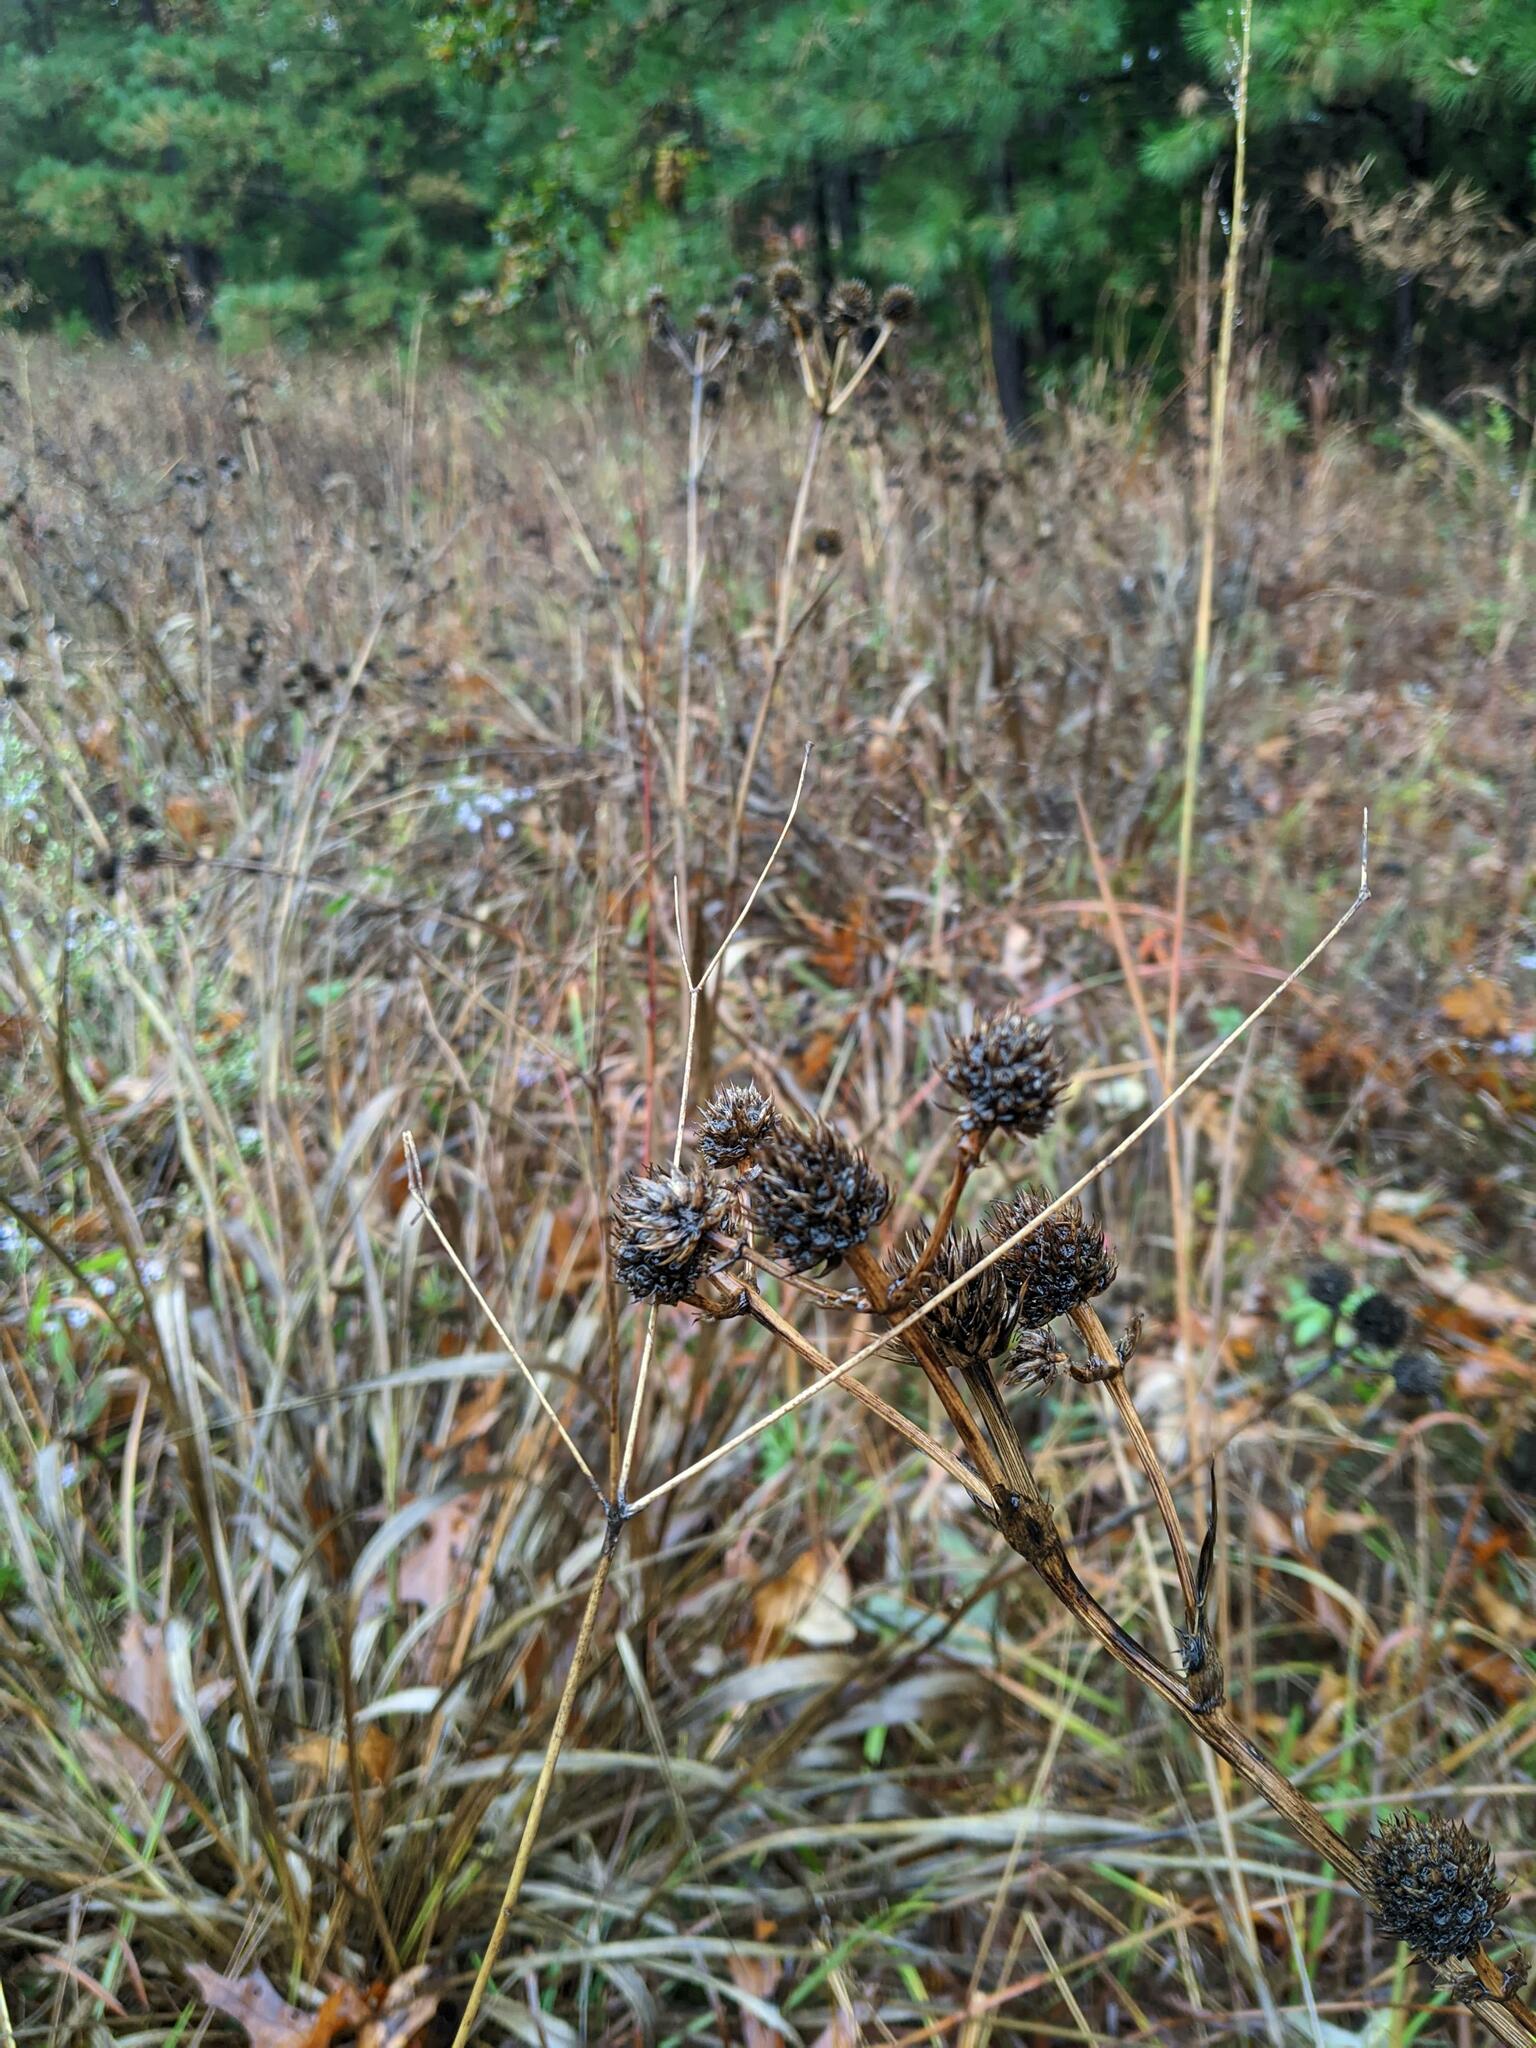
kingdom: Plantae
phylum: Tracheophyta
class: Magnoliopsida
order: Apiales
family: Apiaceae
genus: Eryngium
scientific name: Eryngium yuccifolium
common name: Button eryngo
